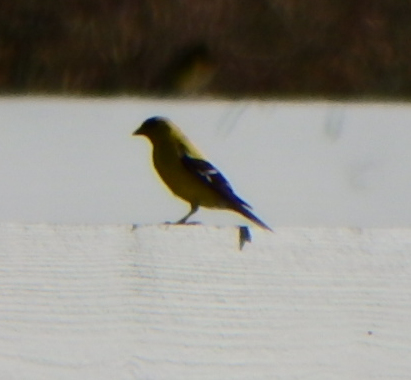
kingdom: Animalia
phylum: Chordata
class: Aves
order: Passeriformes
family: Fringillidae
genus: Spinus
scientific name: Spinus tristis
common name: American goldfinch
